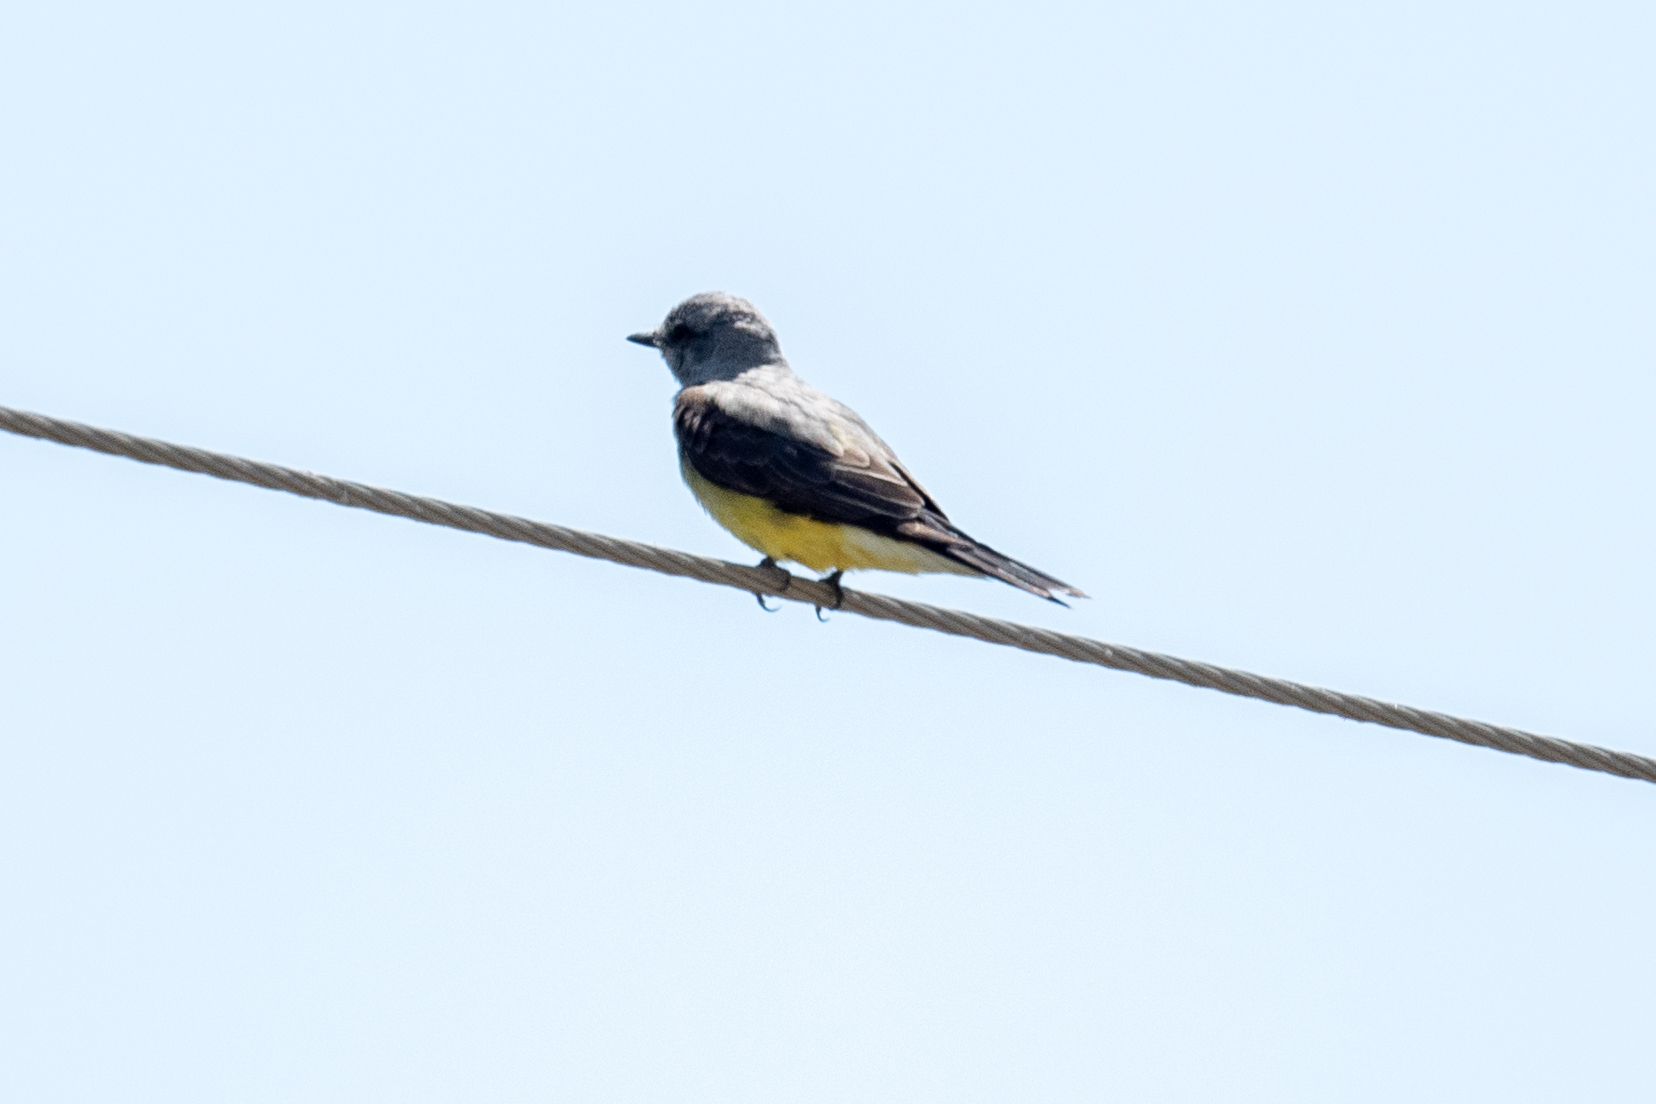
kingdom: Animalia
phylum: Chordata
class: Aves
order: Passeriformes
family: Tyrannidae
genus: Tyrannus
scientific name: Tyrannus verticalis
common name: Western kingbird
